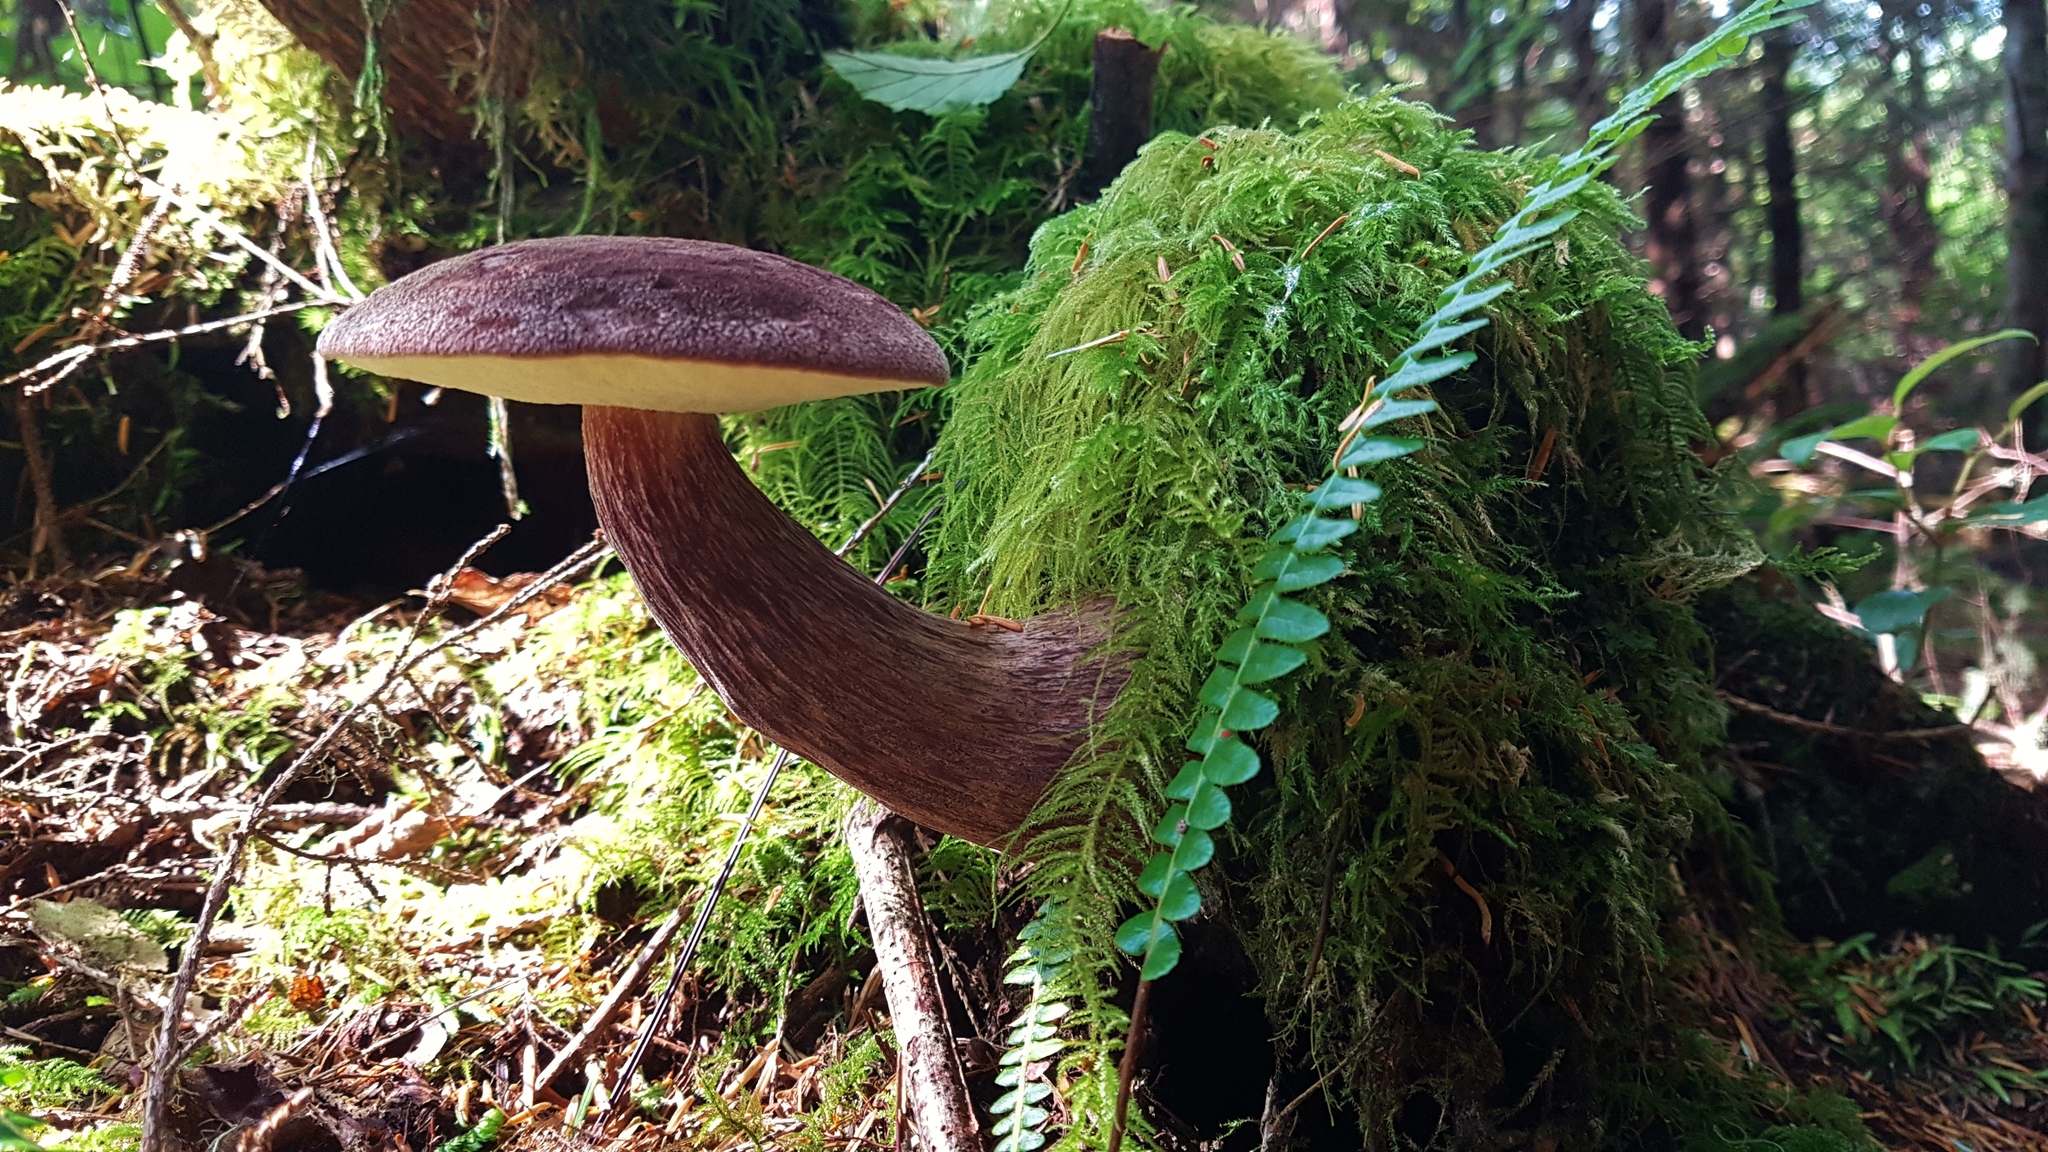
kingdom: Fungi
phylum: Basidiomycota
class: Agaricomycetes
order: Boletales
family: Boletaceae
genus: Aureoboletus
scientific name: Aureoboletus mirabilis
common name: Admirable bolete
